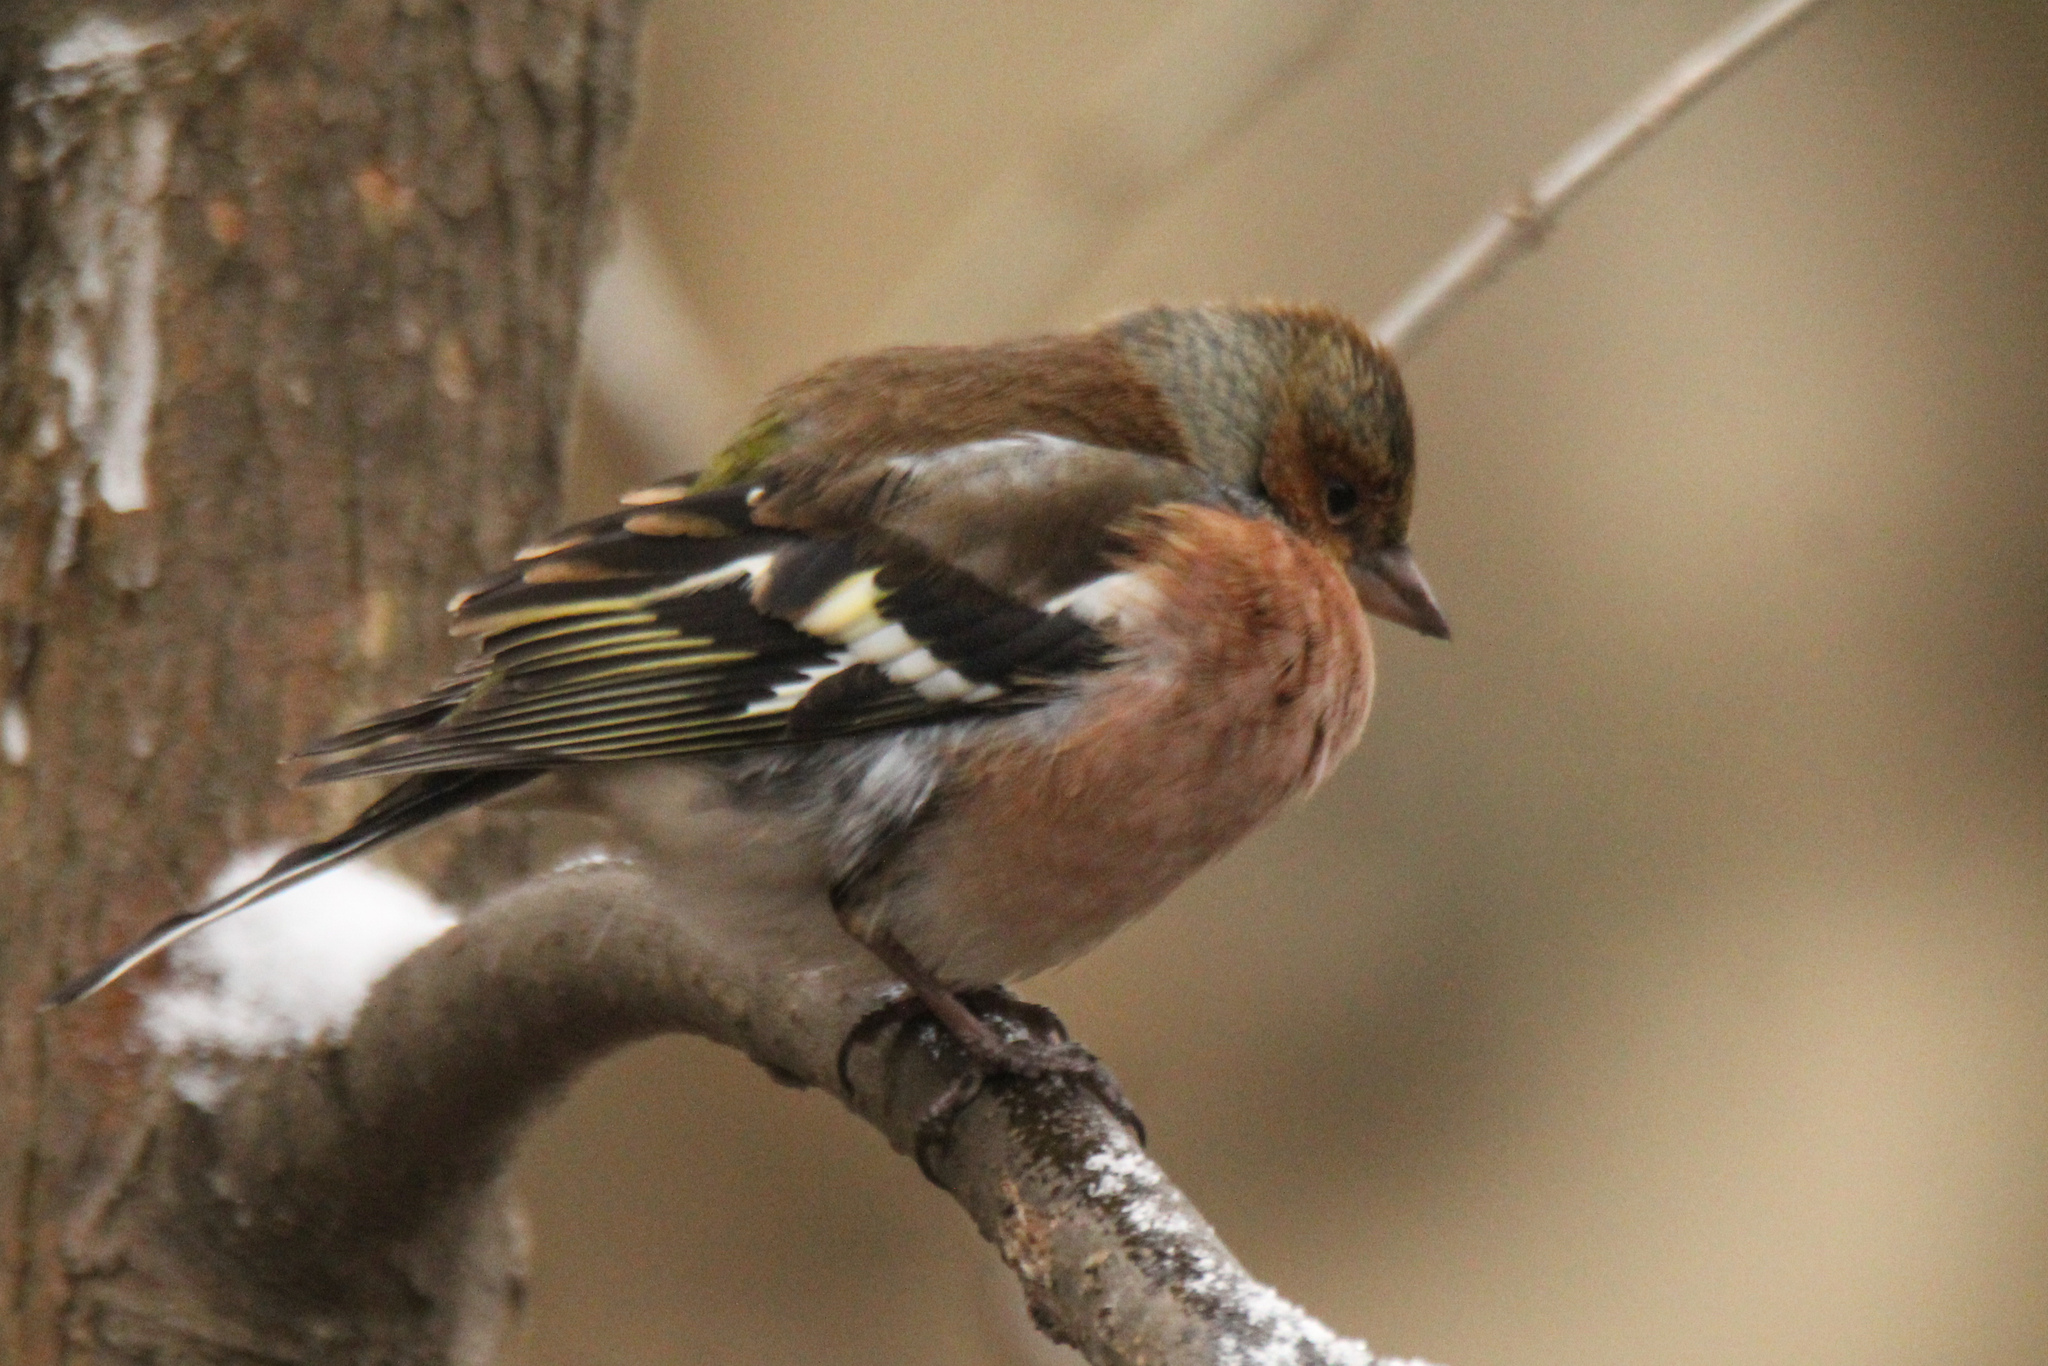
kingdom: Animalia
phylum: Chordata
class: Aves
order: Passeriformes
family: Fringillidae
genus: Fringilla
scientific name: Fringilla coelebs
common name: Common chaffinch
